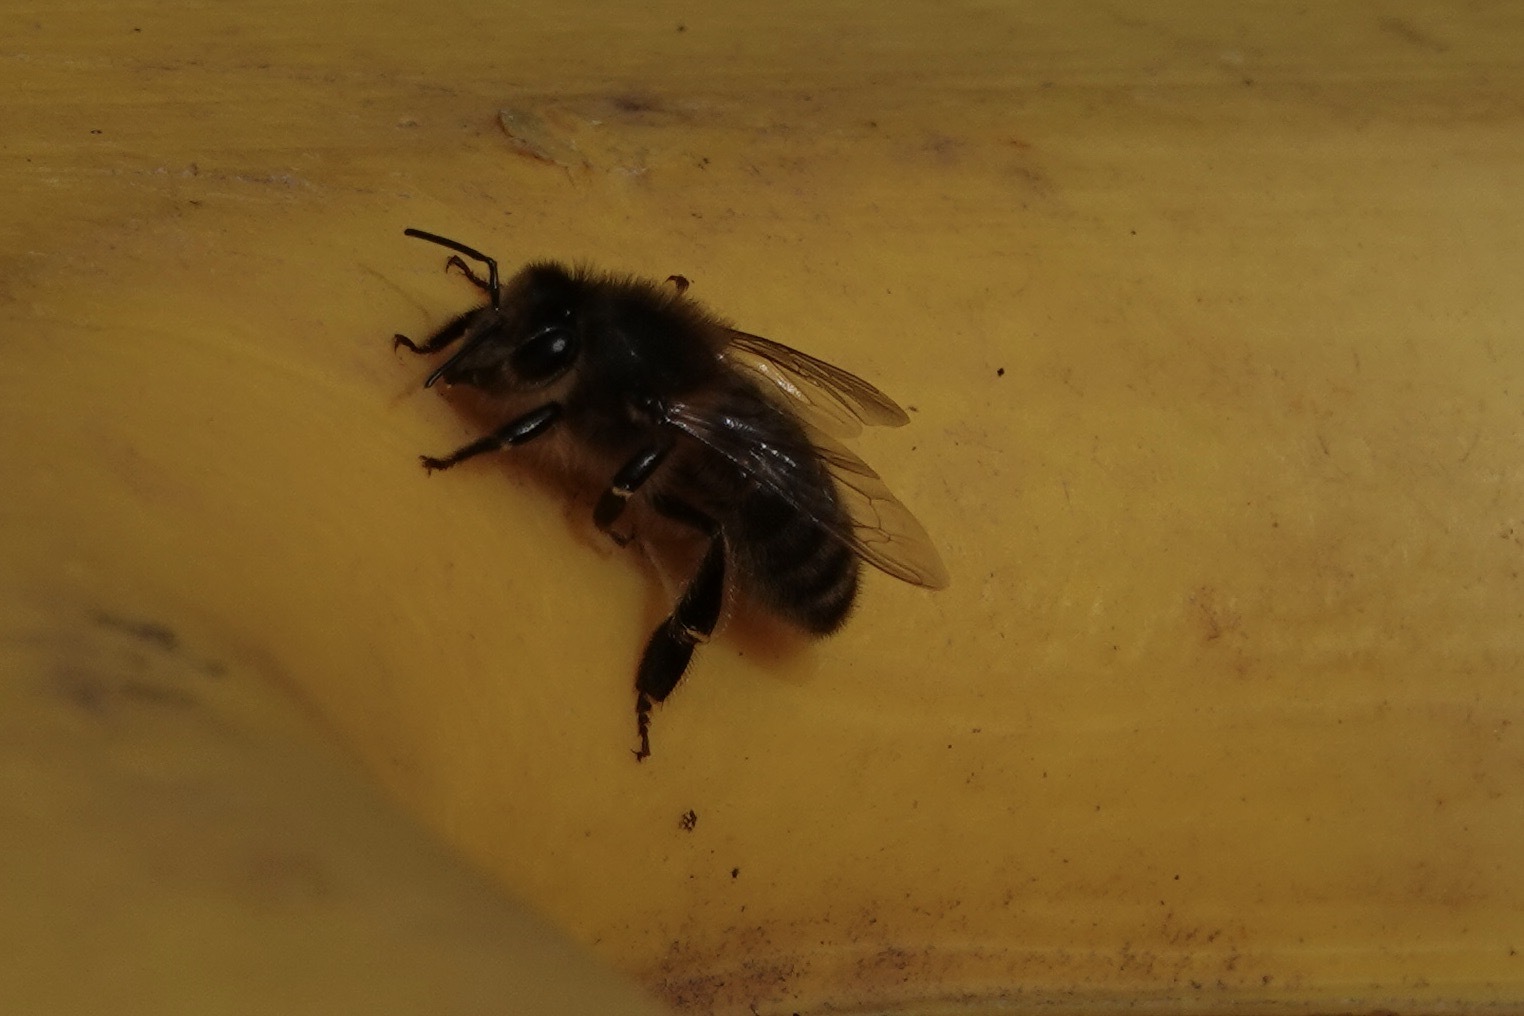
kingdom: Animalia
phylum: Arthropoda
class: Insecta
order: Hymenoptera
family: Apidae
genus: Apis
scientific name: Apis mellifera
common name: Honey bee
